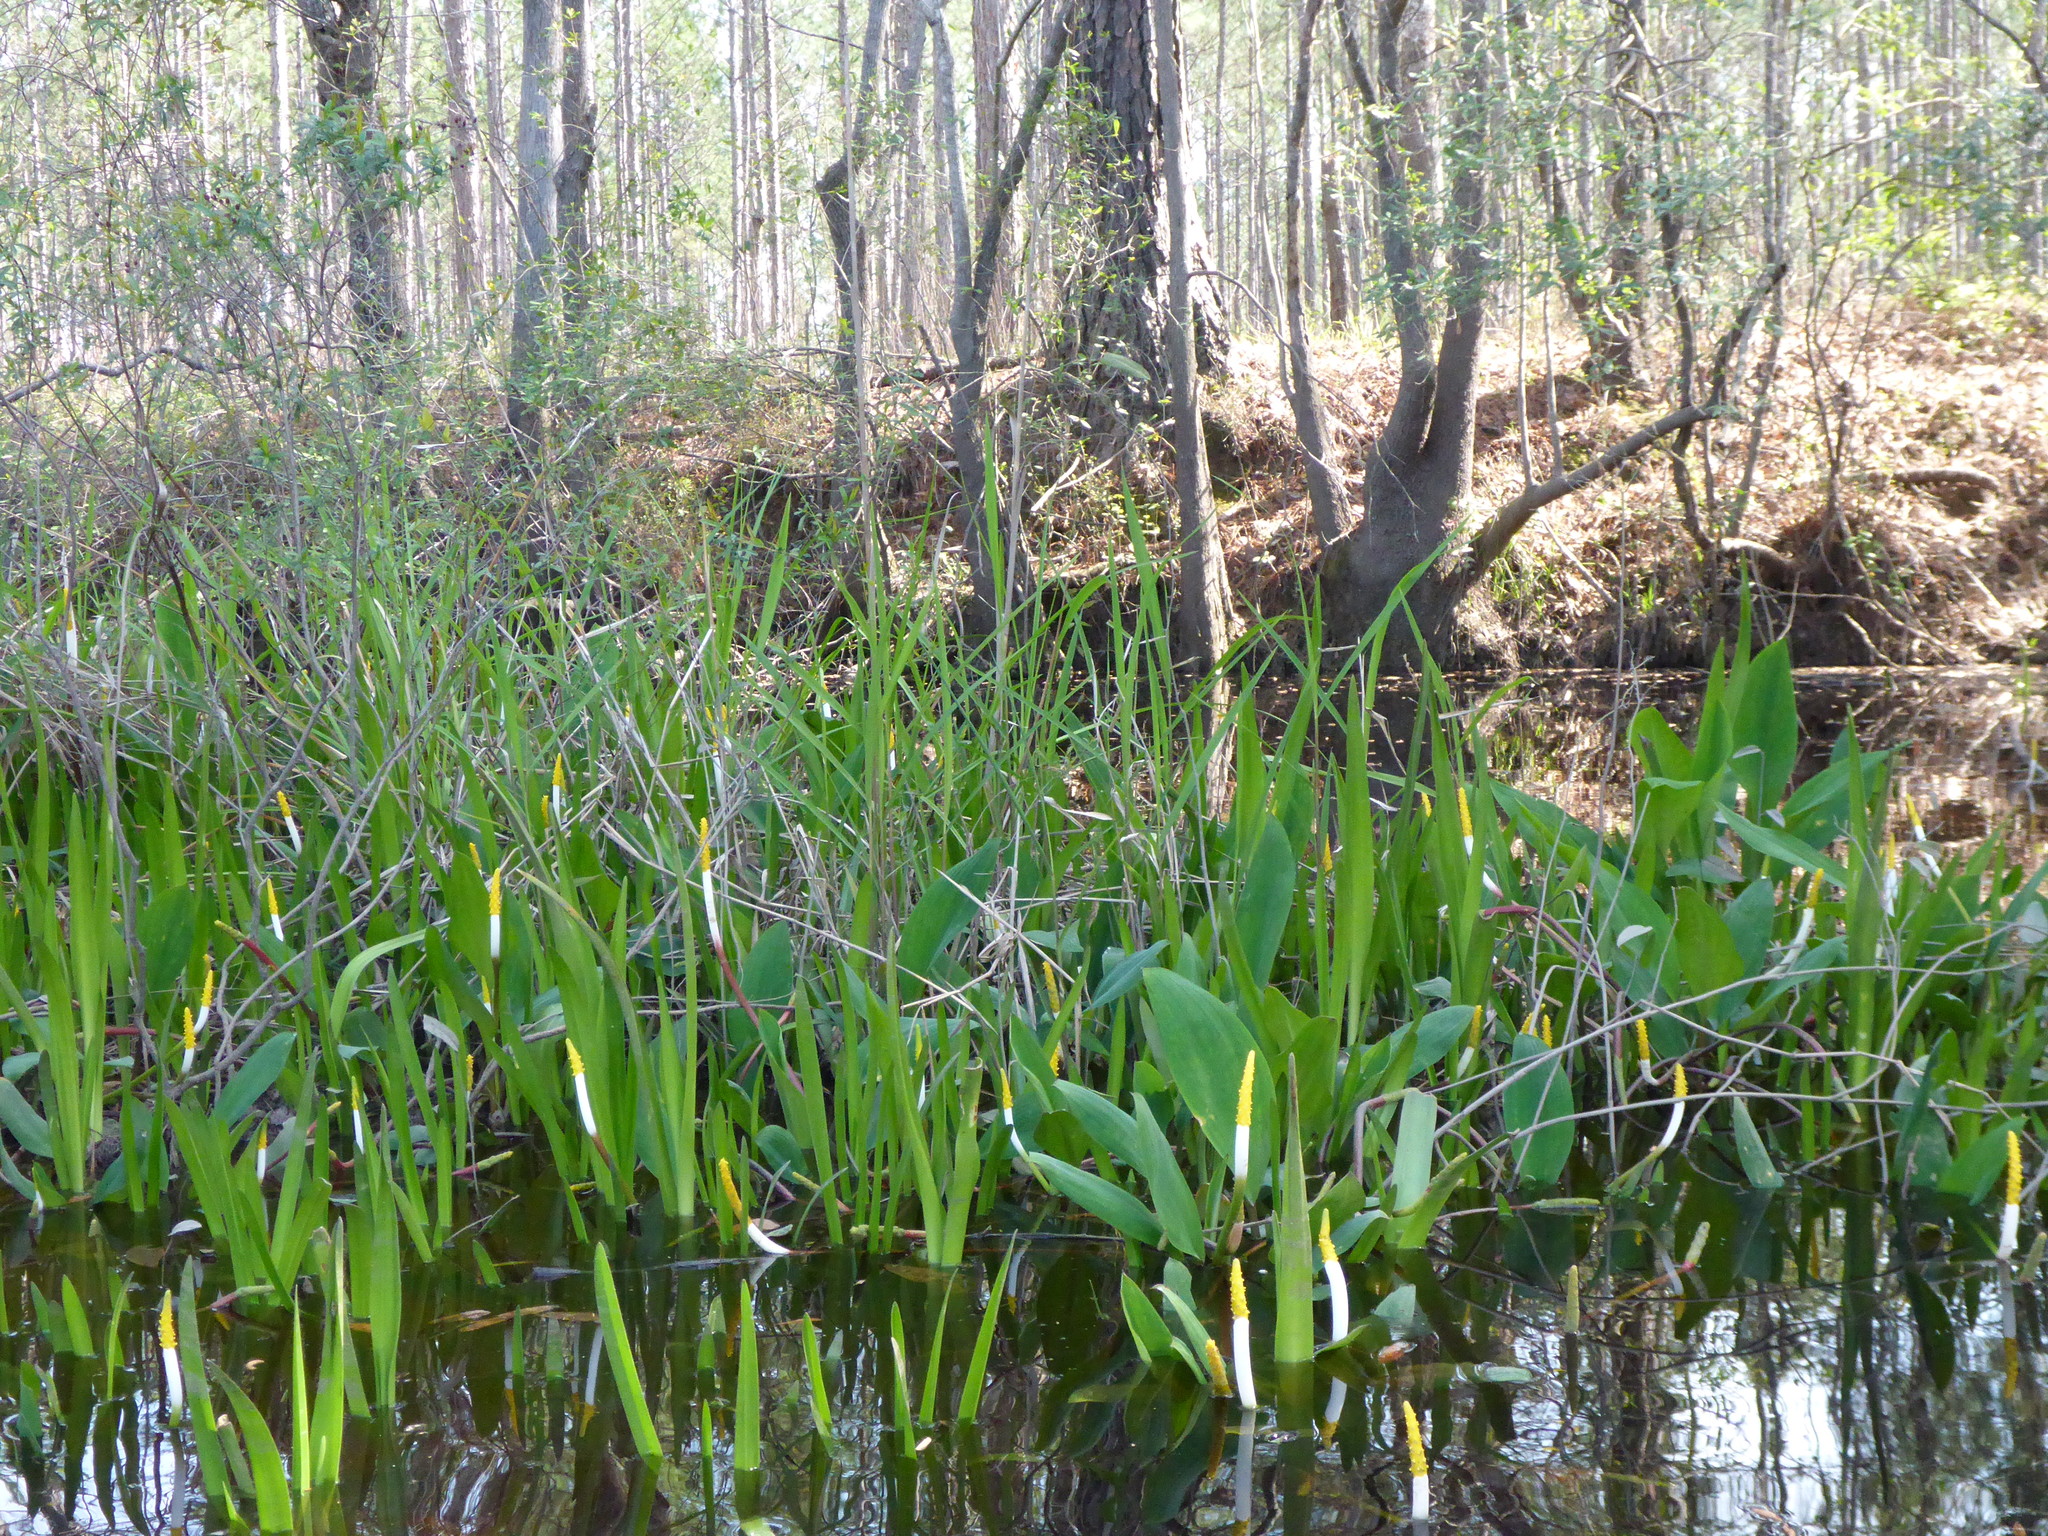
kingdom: Plantae
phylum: Tracheophyta
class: Liliopsida
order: Alismatales
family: Araceae
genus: Orontium
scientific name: Orontium aquaticum
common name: Golden-club
